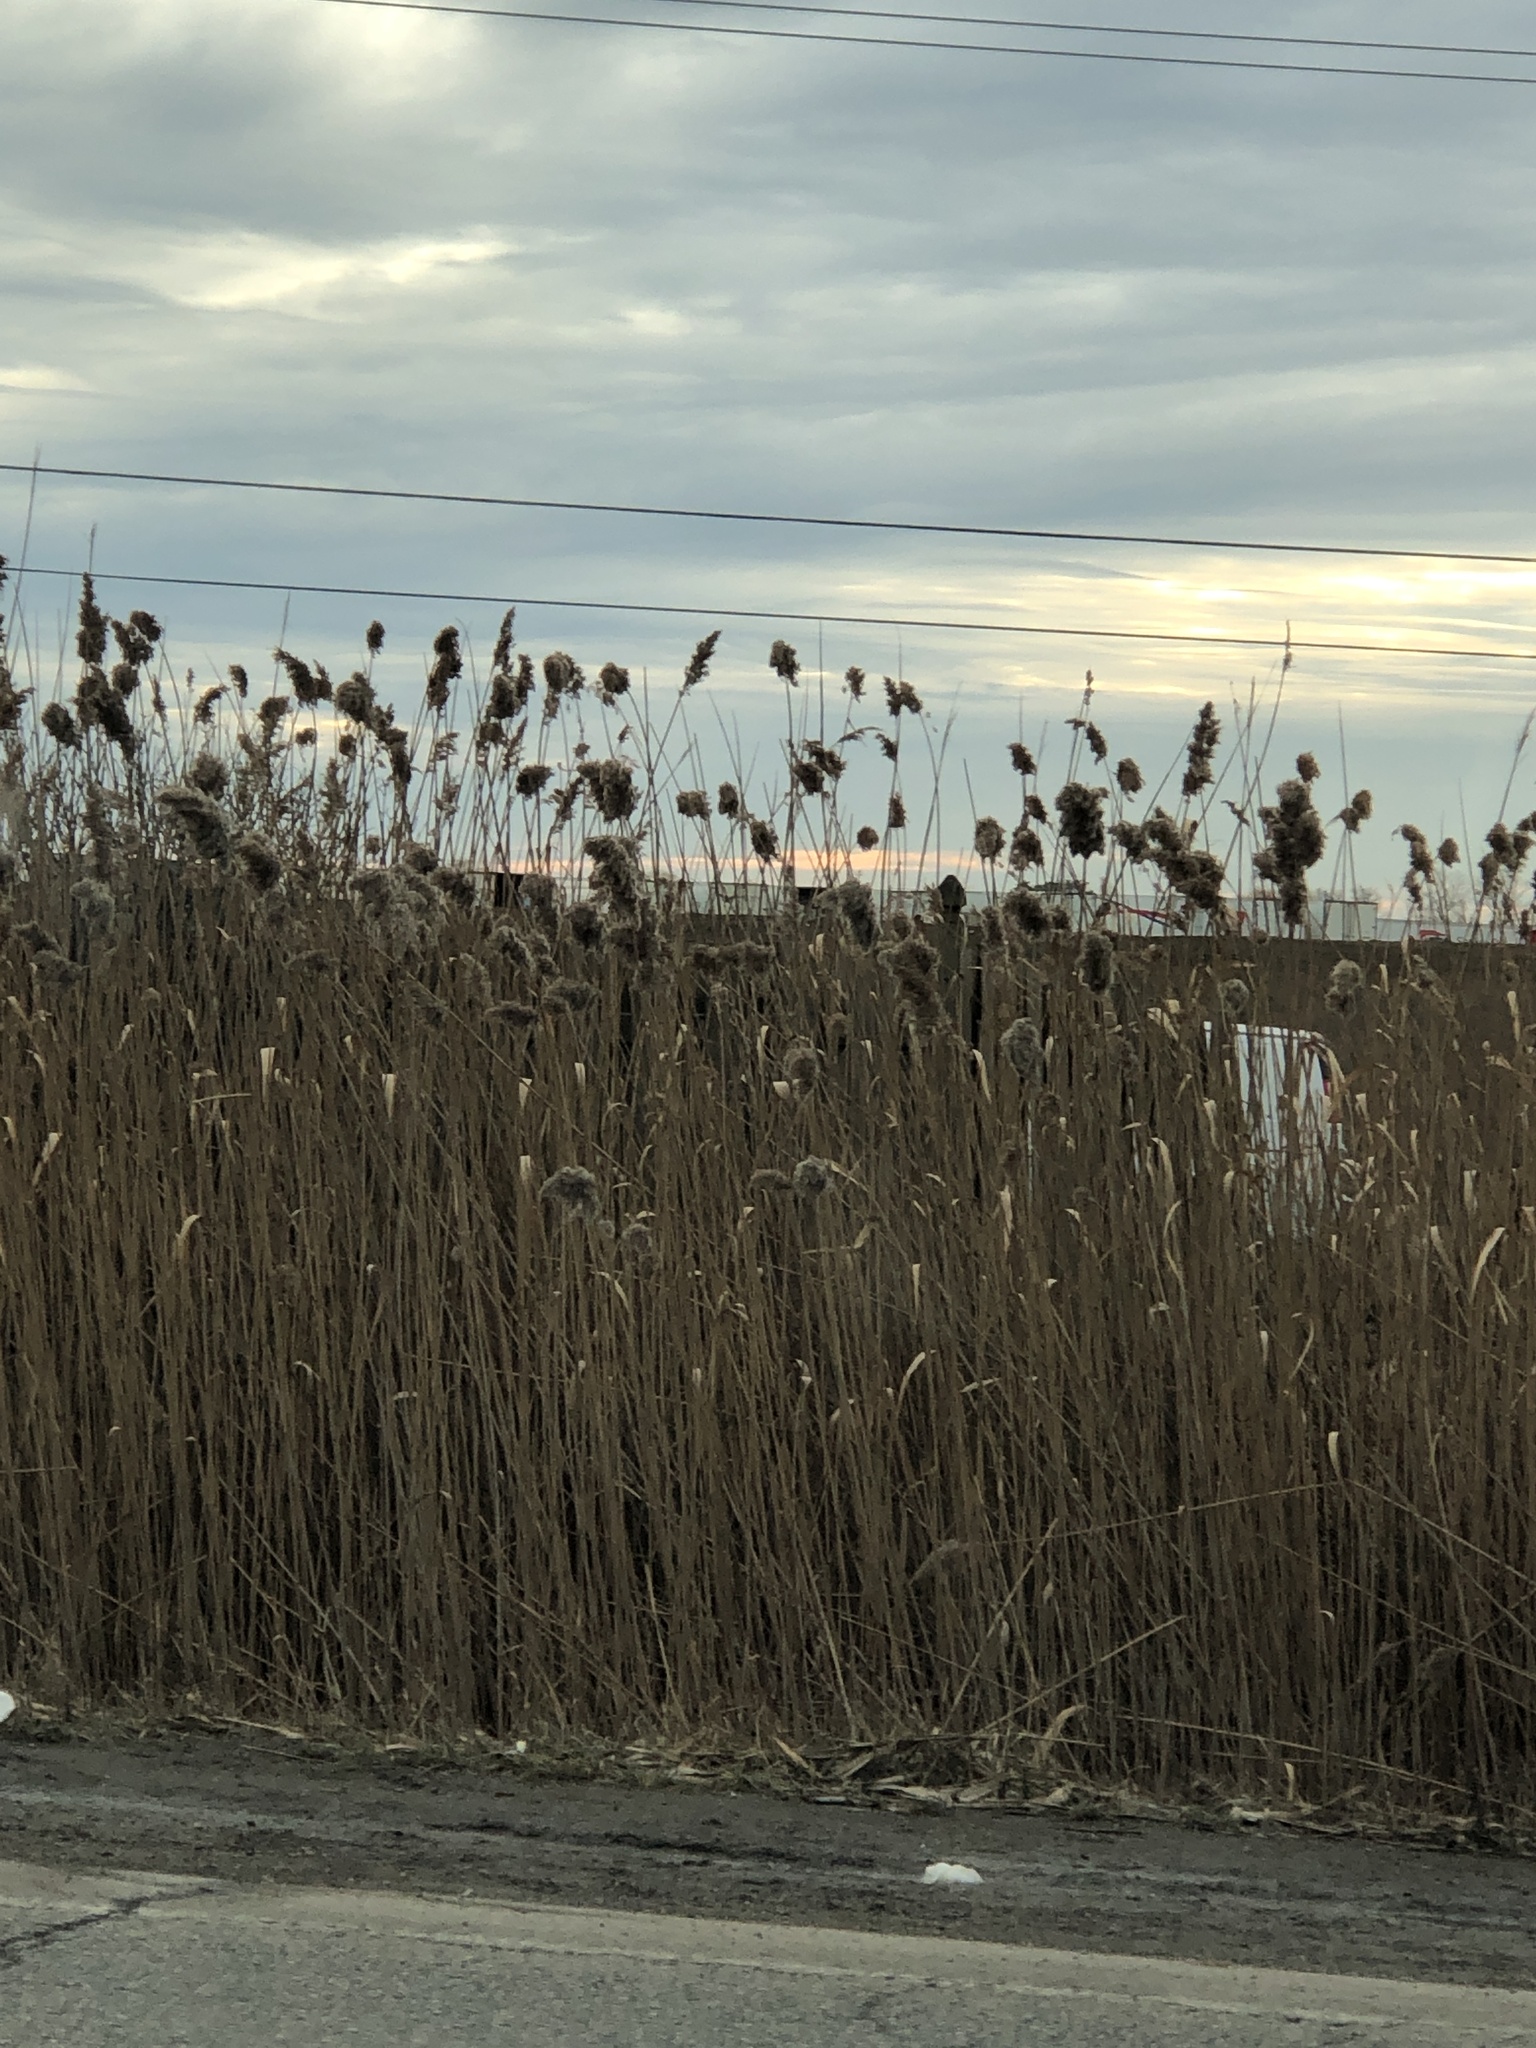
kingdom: Plantae
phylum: Tracheophyta
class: Liliopsida
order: Poales
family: Poaceae
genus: Phragmites
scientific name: Phragmites australis
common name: Common reed
